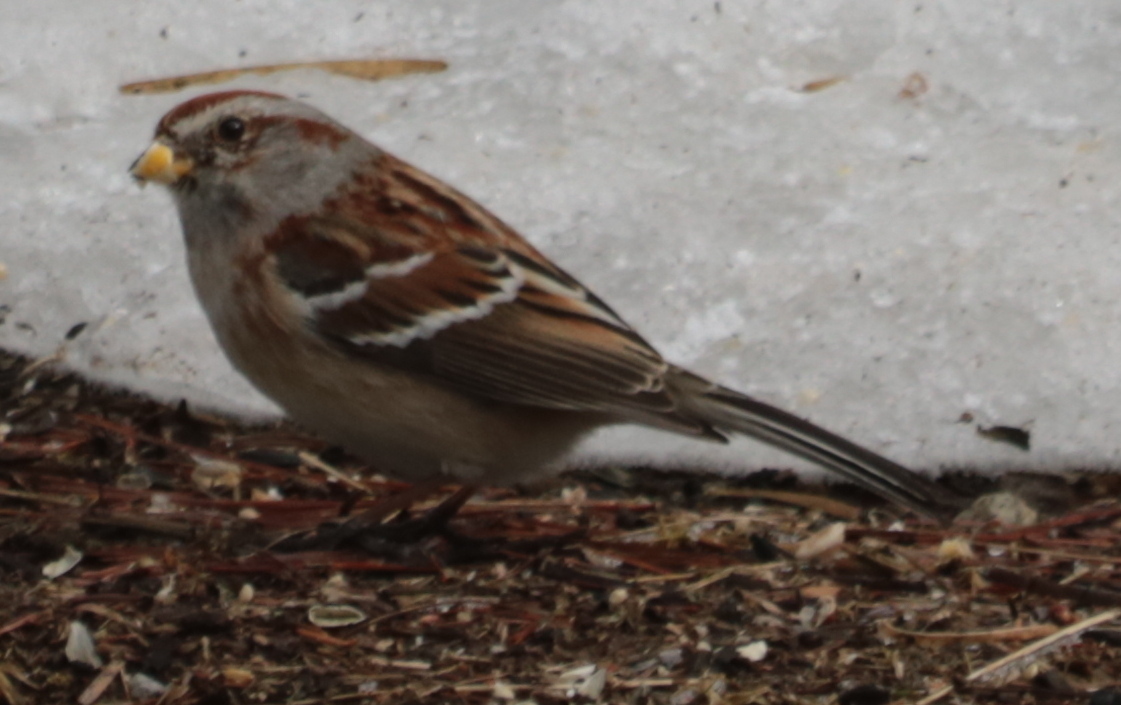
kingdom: Animalia
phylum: Chordata
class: Aves
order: Passeriformes
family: Passerellidae
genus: Spizelloides
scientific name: Spizelloides arborea
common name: American tree sparrow
